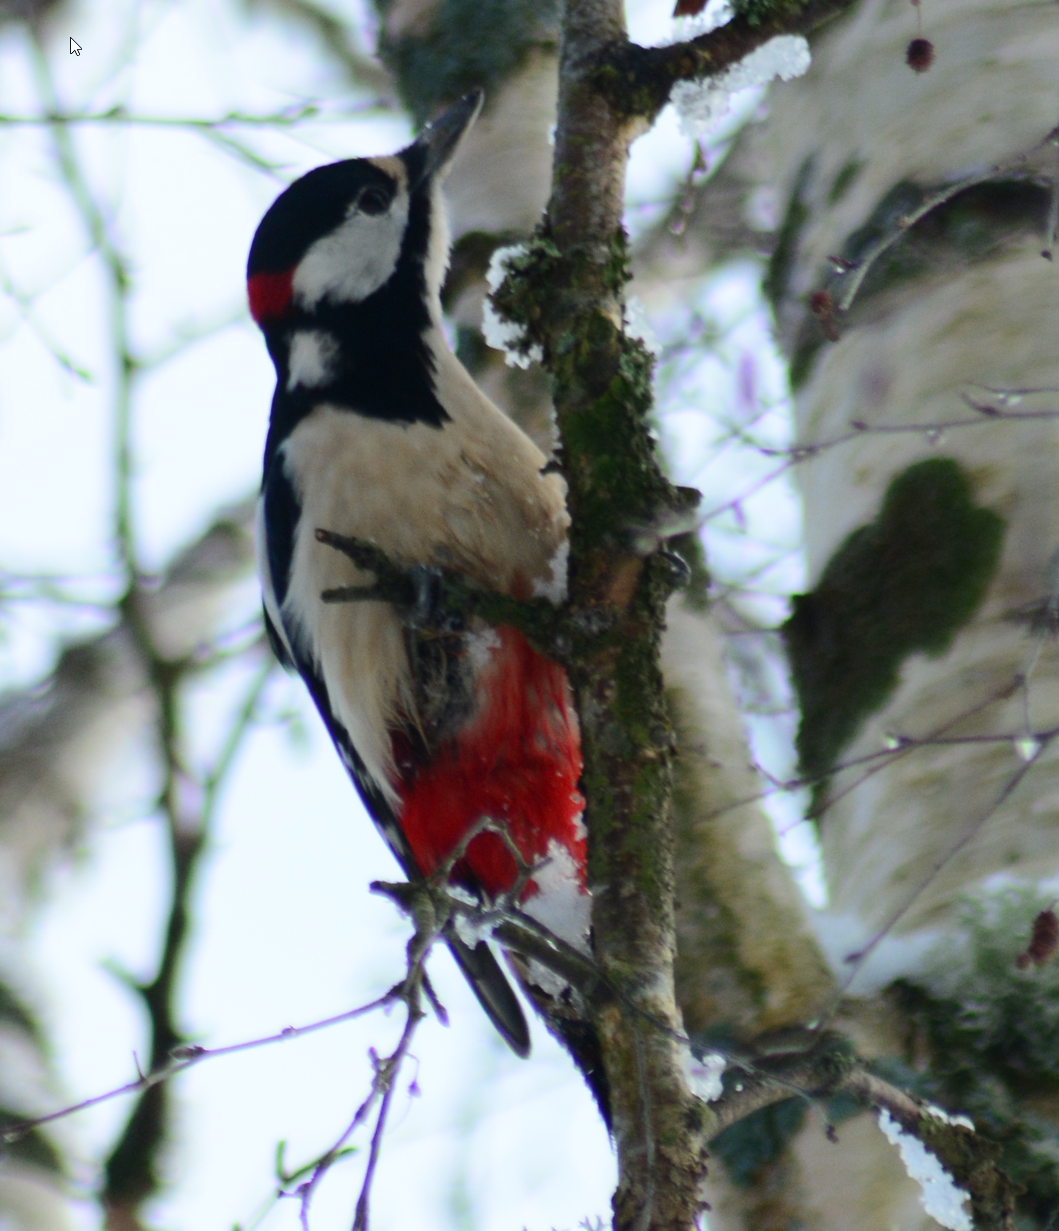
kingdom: Animalia
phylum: Chordata
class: Aves
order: Piciformes
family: Picidae
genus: Dendrocopos
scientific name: Dendrocopos major
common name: Great spotted woodpecker
